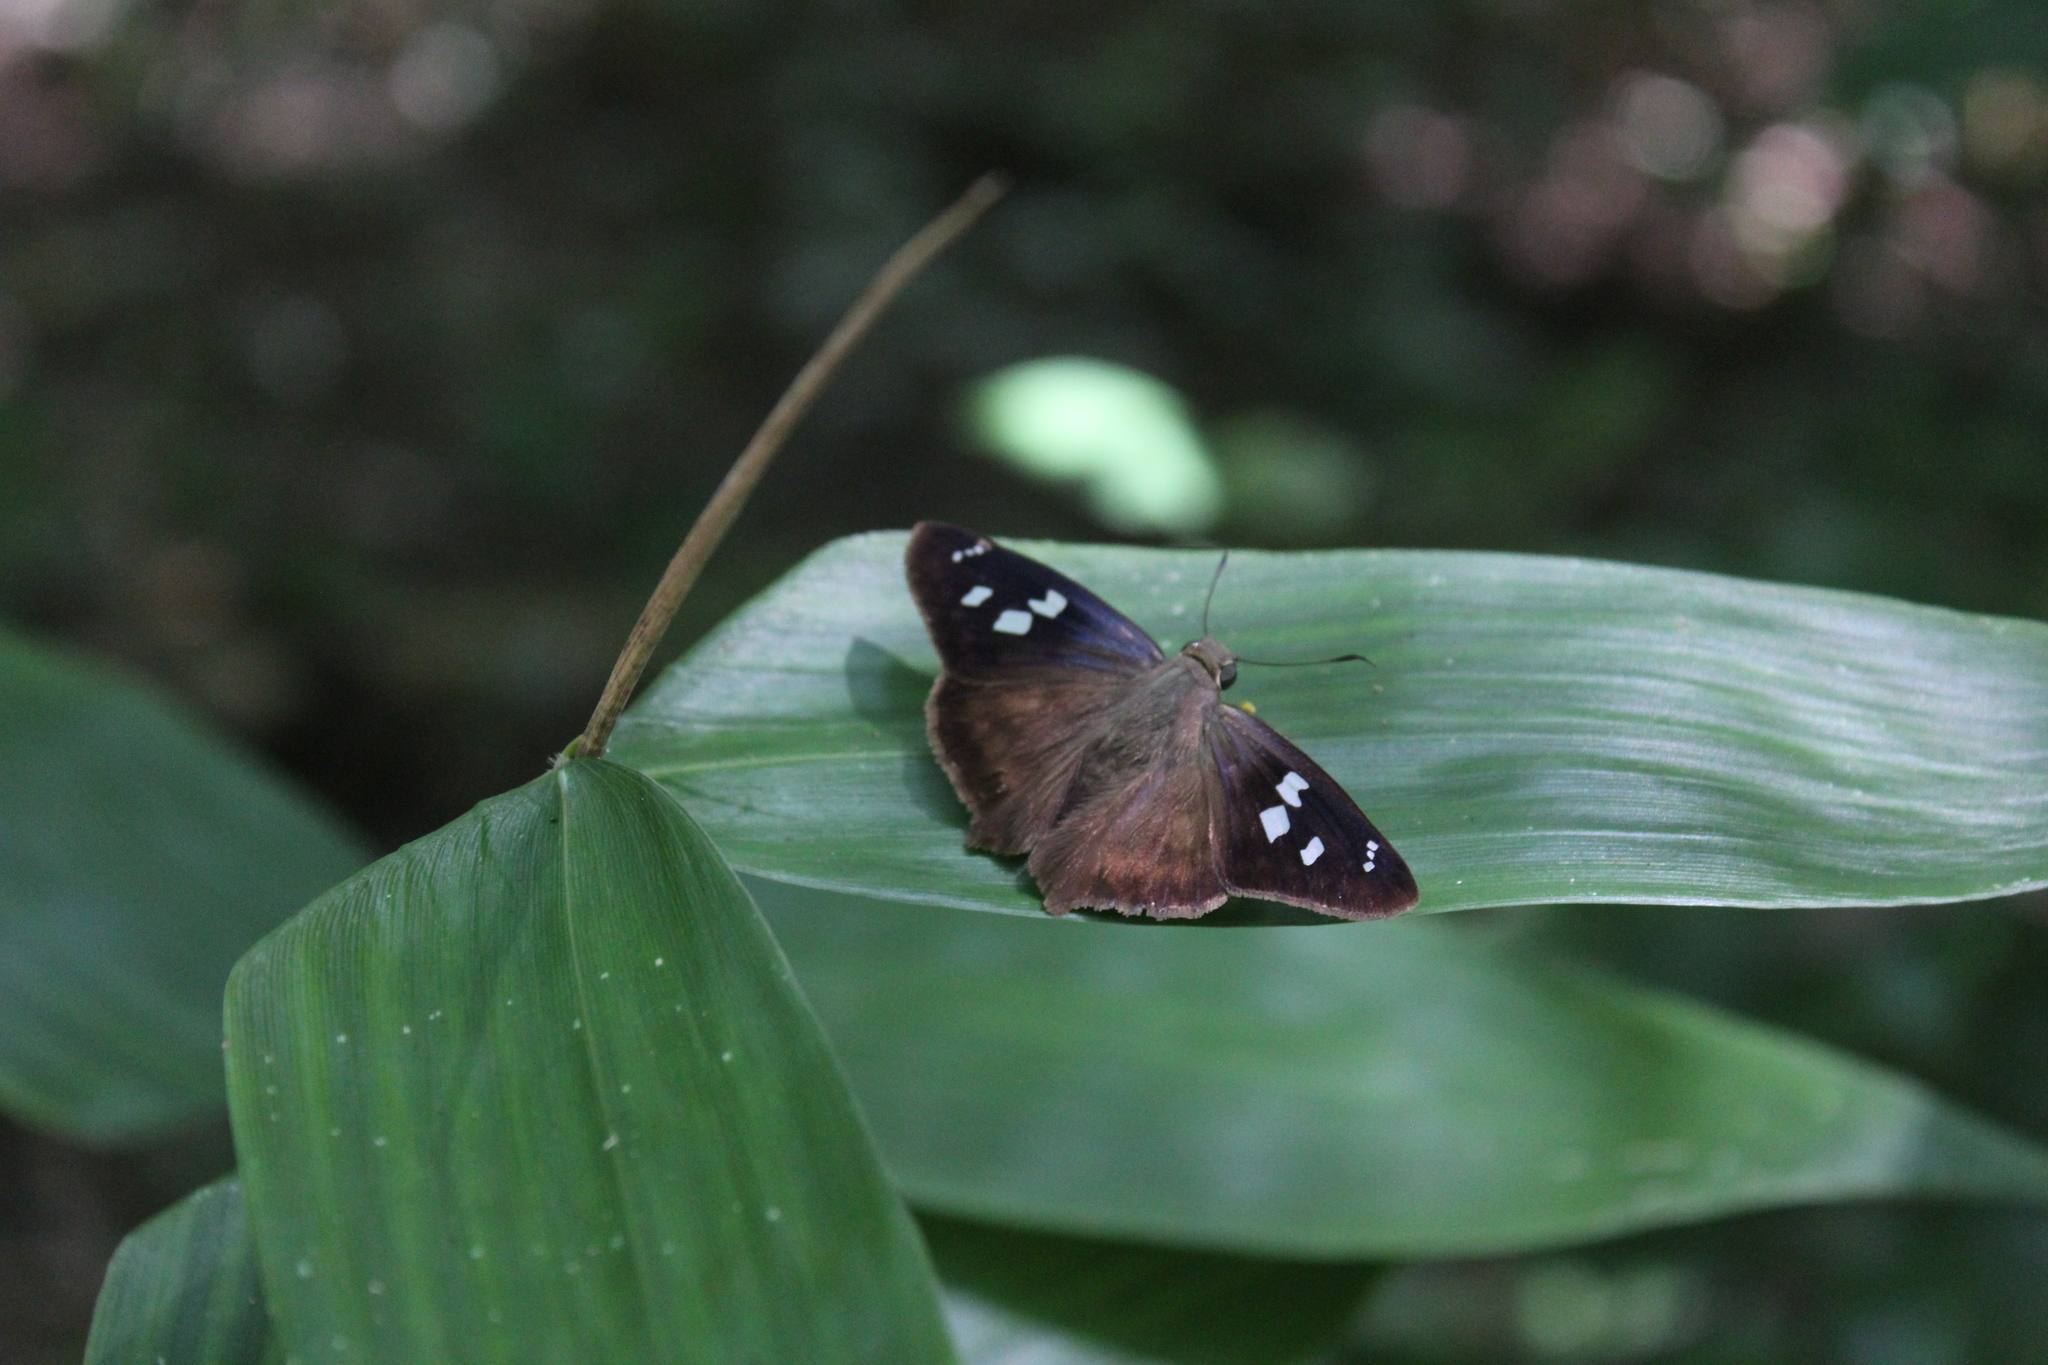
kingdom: Animalia
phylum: Arthropoda
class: Insecta
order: Lepidoptera
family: Hesperiidae
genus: Polygonus
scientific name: Polygonus leo
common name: Hammoch skipper
